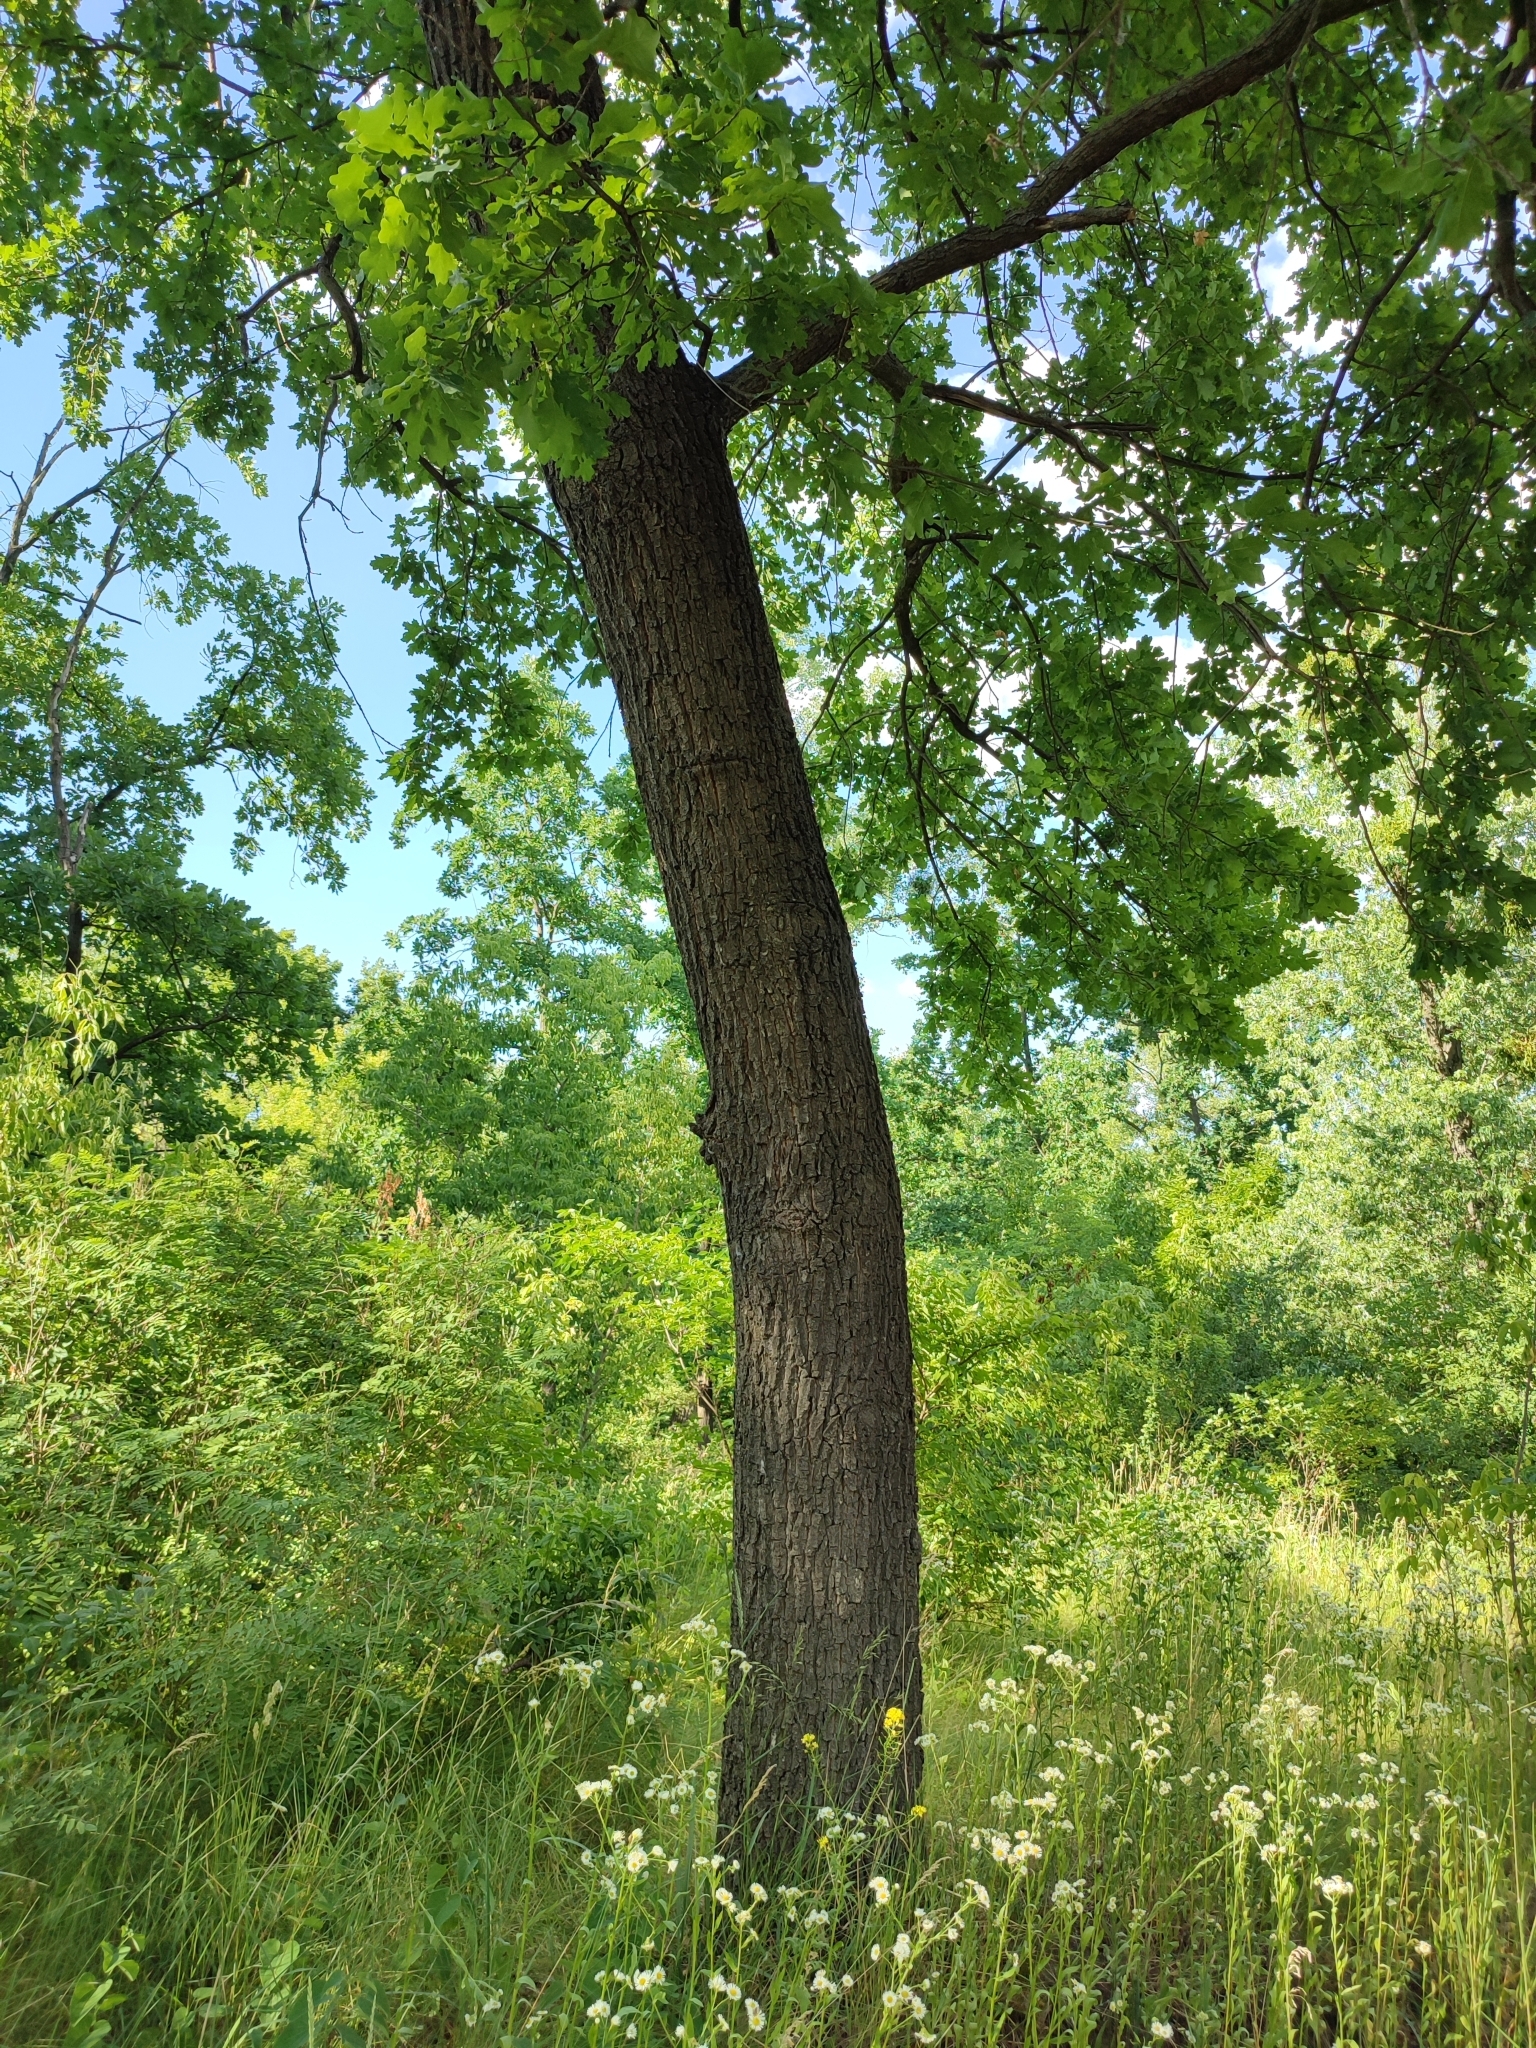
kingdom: Plantae
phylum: Tracheophyta
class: Magnoliopsida
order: Fagales
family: Fagaceae
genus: Quercus
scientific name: Quercus robur
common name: Pedunculate oak
